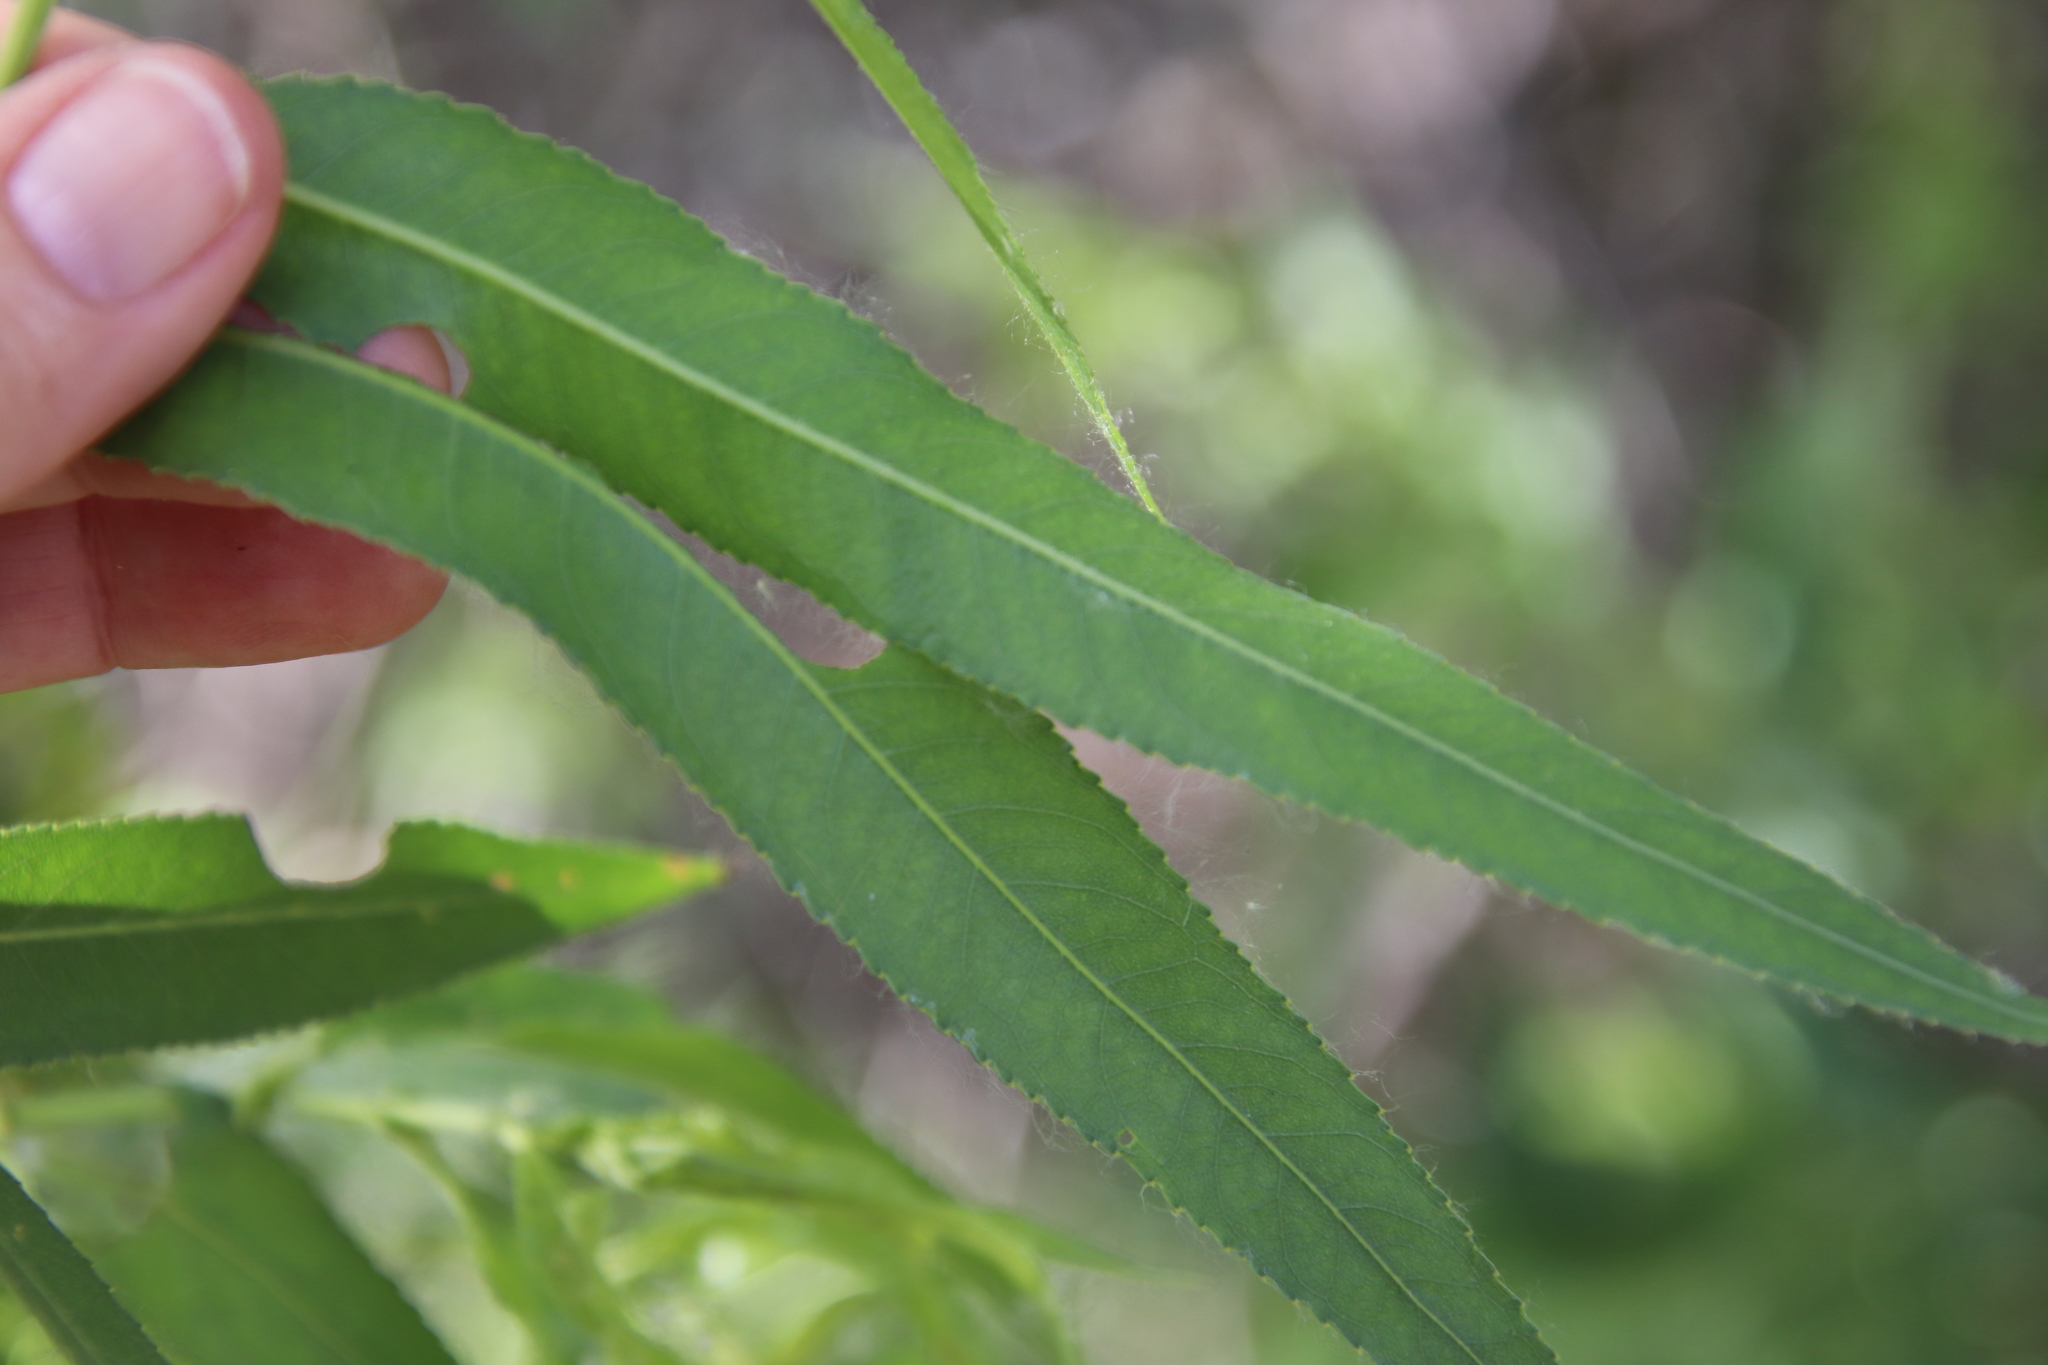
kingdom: Plantae
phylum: Tracheophyta
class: Magnoliopsida
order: Malpighiales
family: Salicaceae
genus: Salix
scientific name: Salix gooddingii
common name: Goodding's willow
